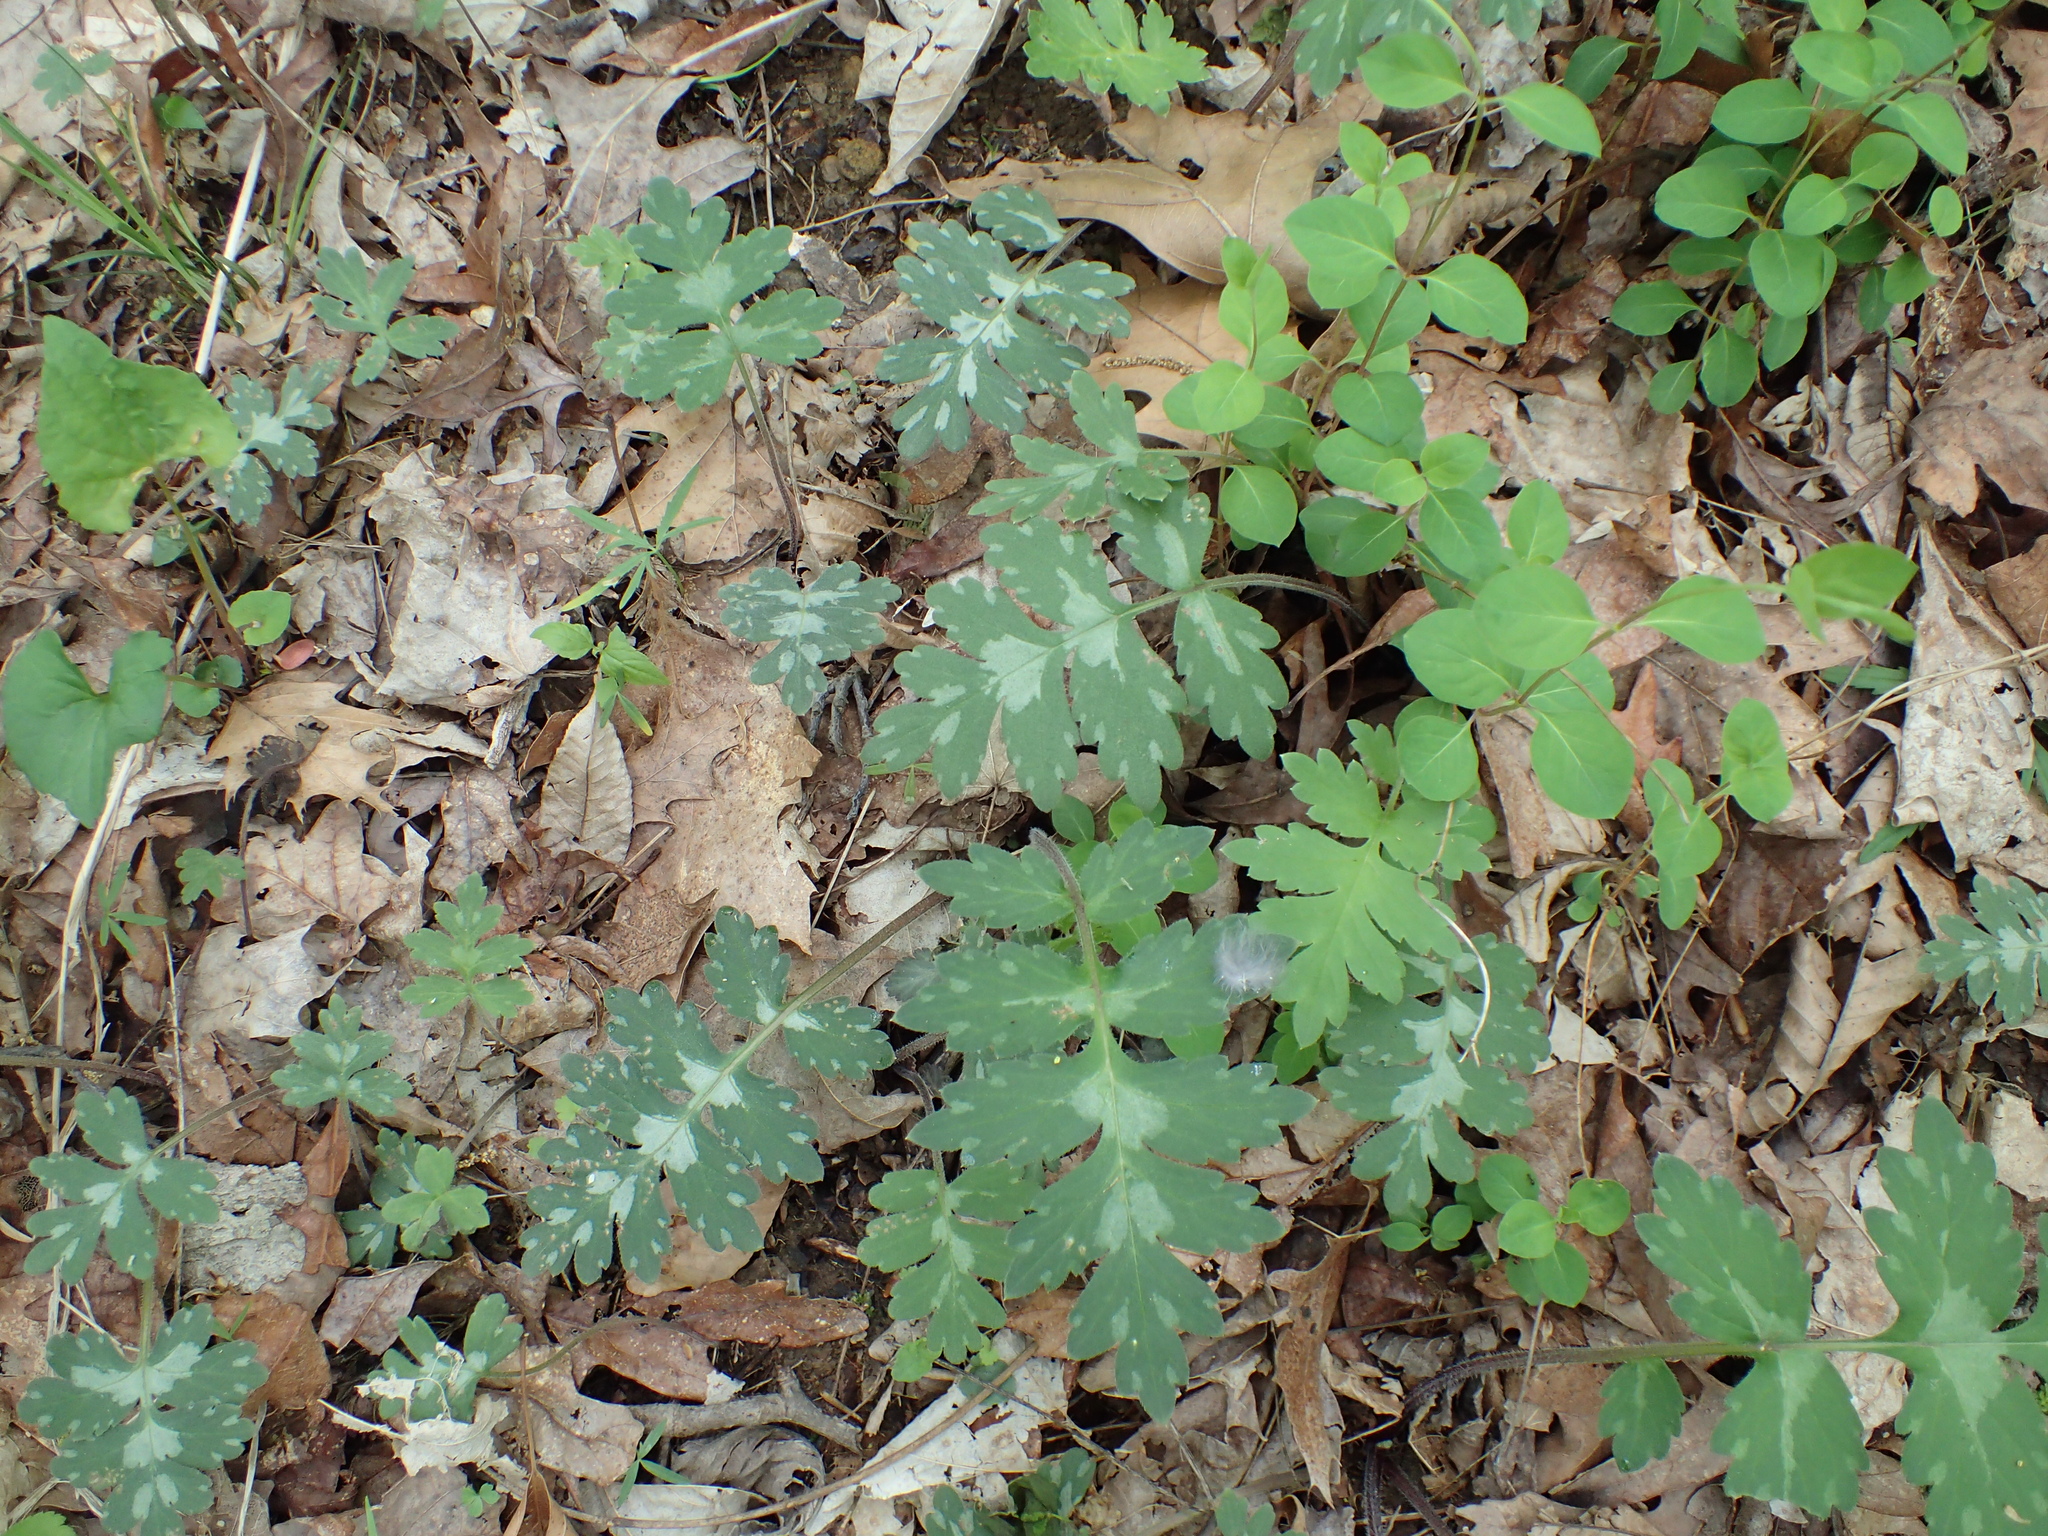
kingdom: Plantae
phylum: Tracheophyta
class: Magnoliopsida
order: Boraginales
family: Hydrophyllaceae
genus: Hydrophyllum
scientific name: Hydrophyllum appendiculatum
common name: Appendaged waterleaf
